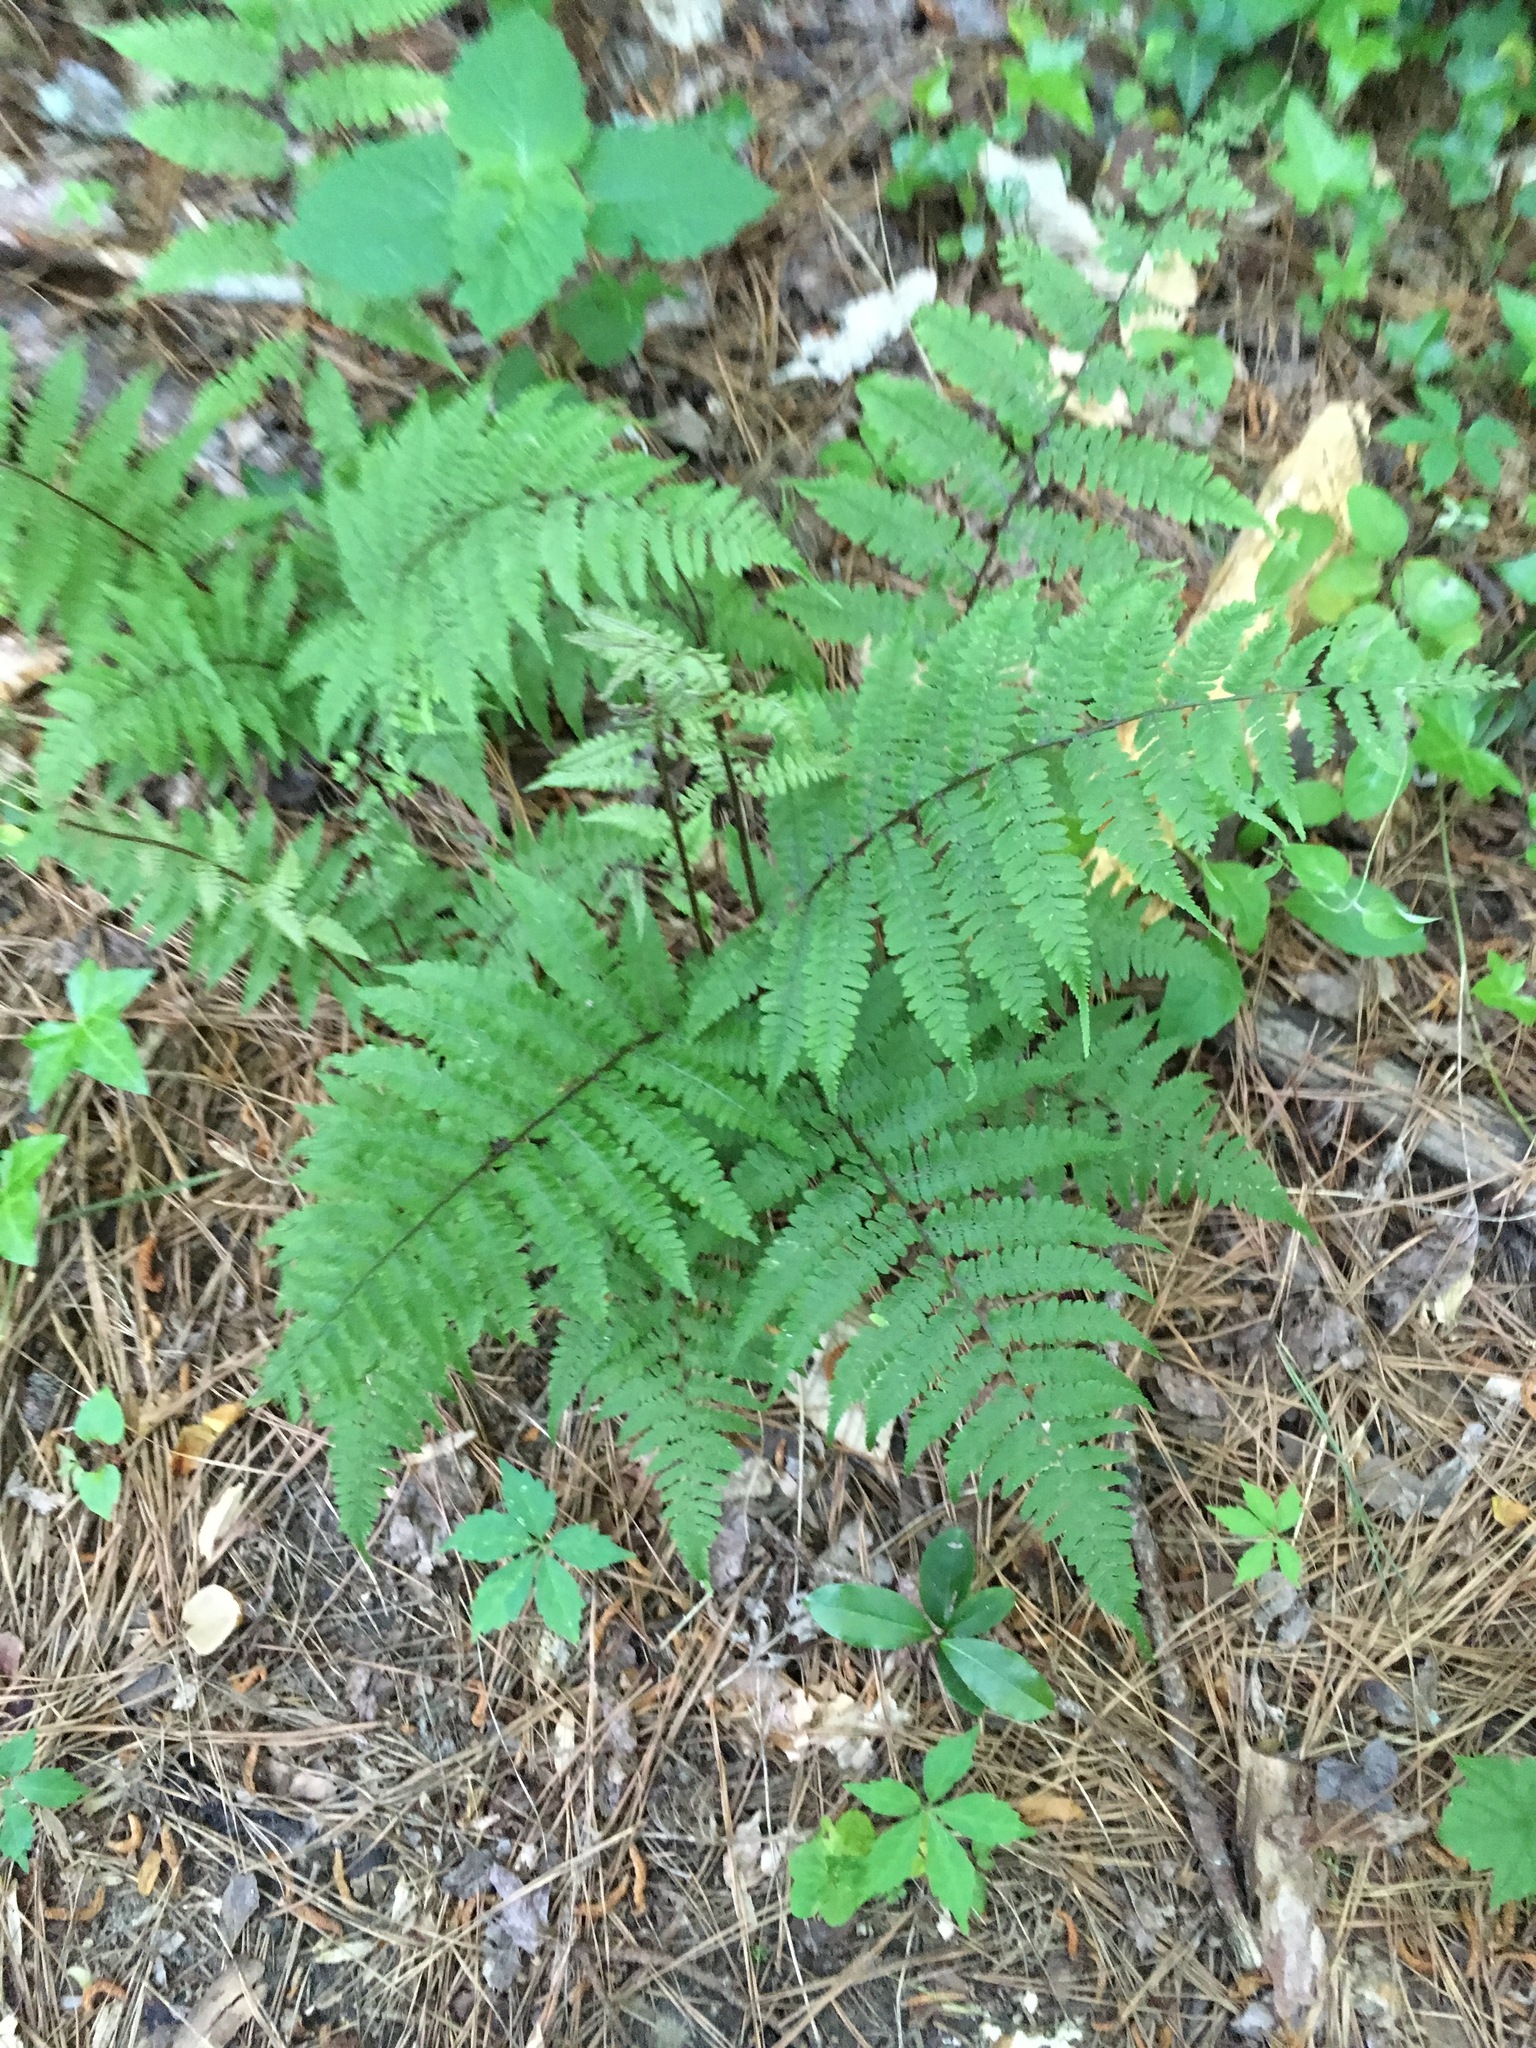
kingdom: Plantae
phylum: Tracheophyta
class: Polypodiopsida
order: Polypodiales
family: Athyriaceae
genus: Athyrium
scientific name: Athyrium asplenioides
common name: Southern lady fern
